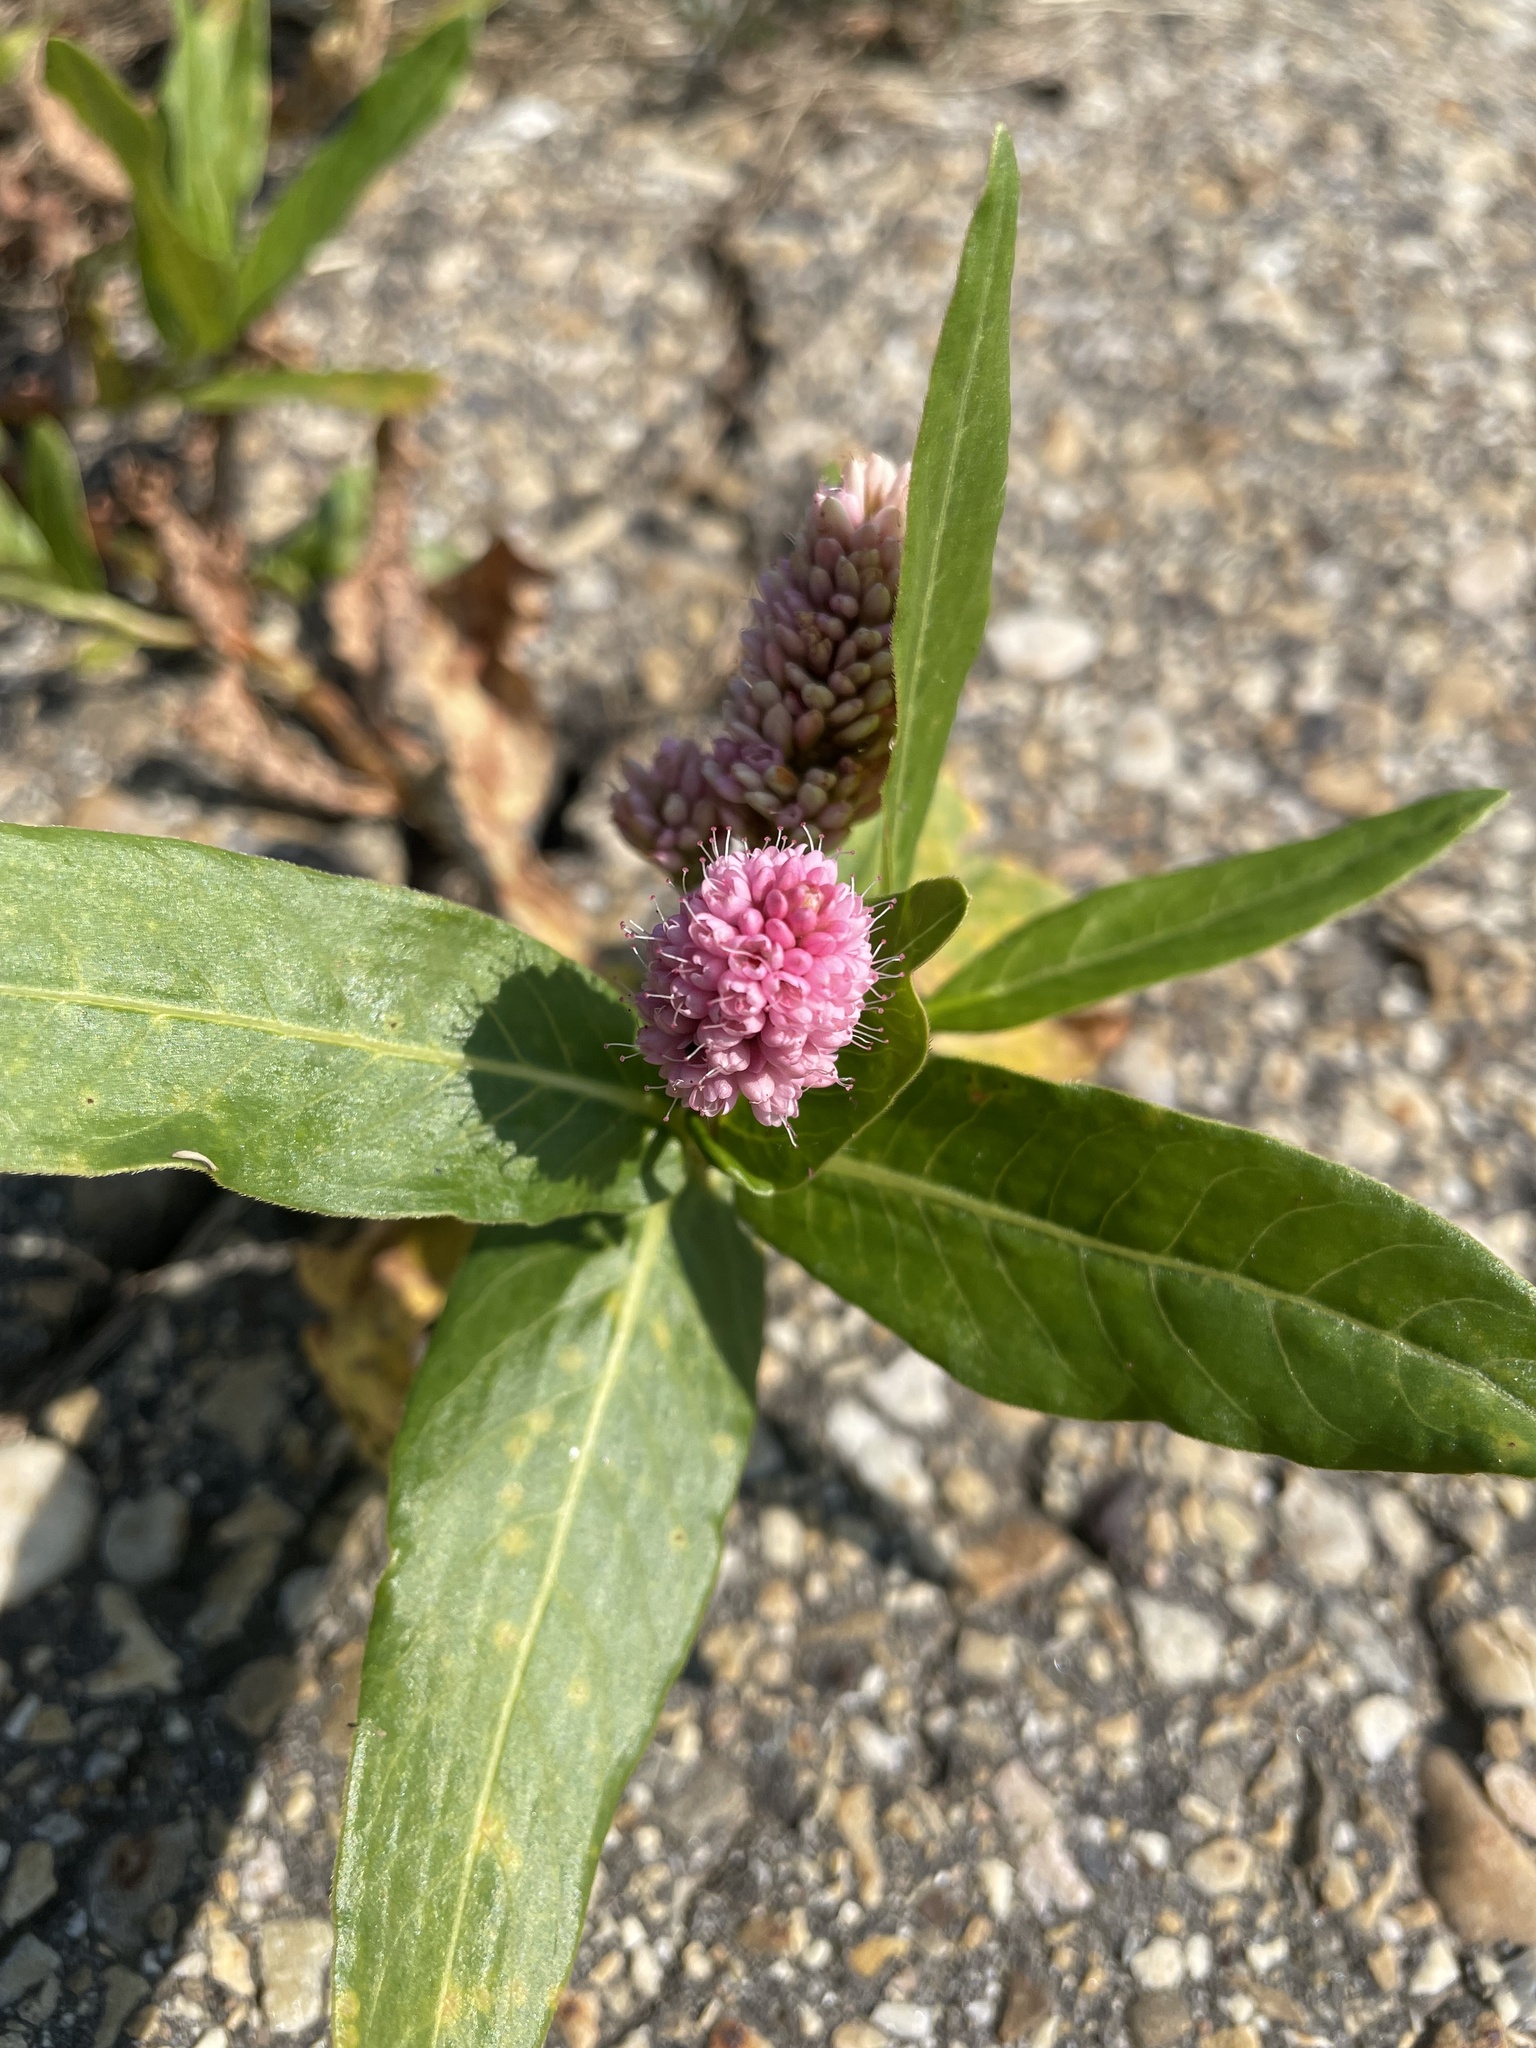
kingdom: Plantae
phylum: Tracheophyta
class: Magnoliopsida
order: Caryophyllales
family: Polygonaceae
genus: Persicaria
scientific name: Persicaria amphibia
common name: Amphibious bistort
